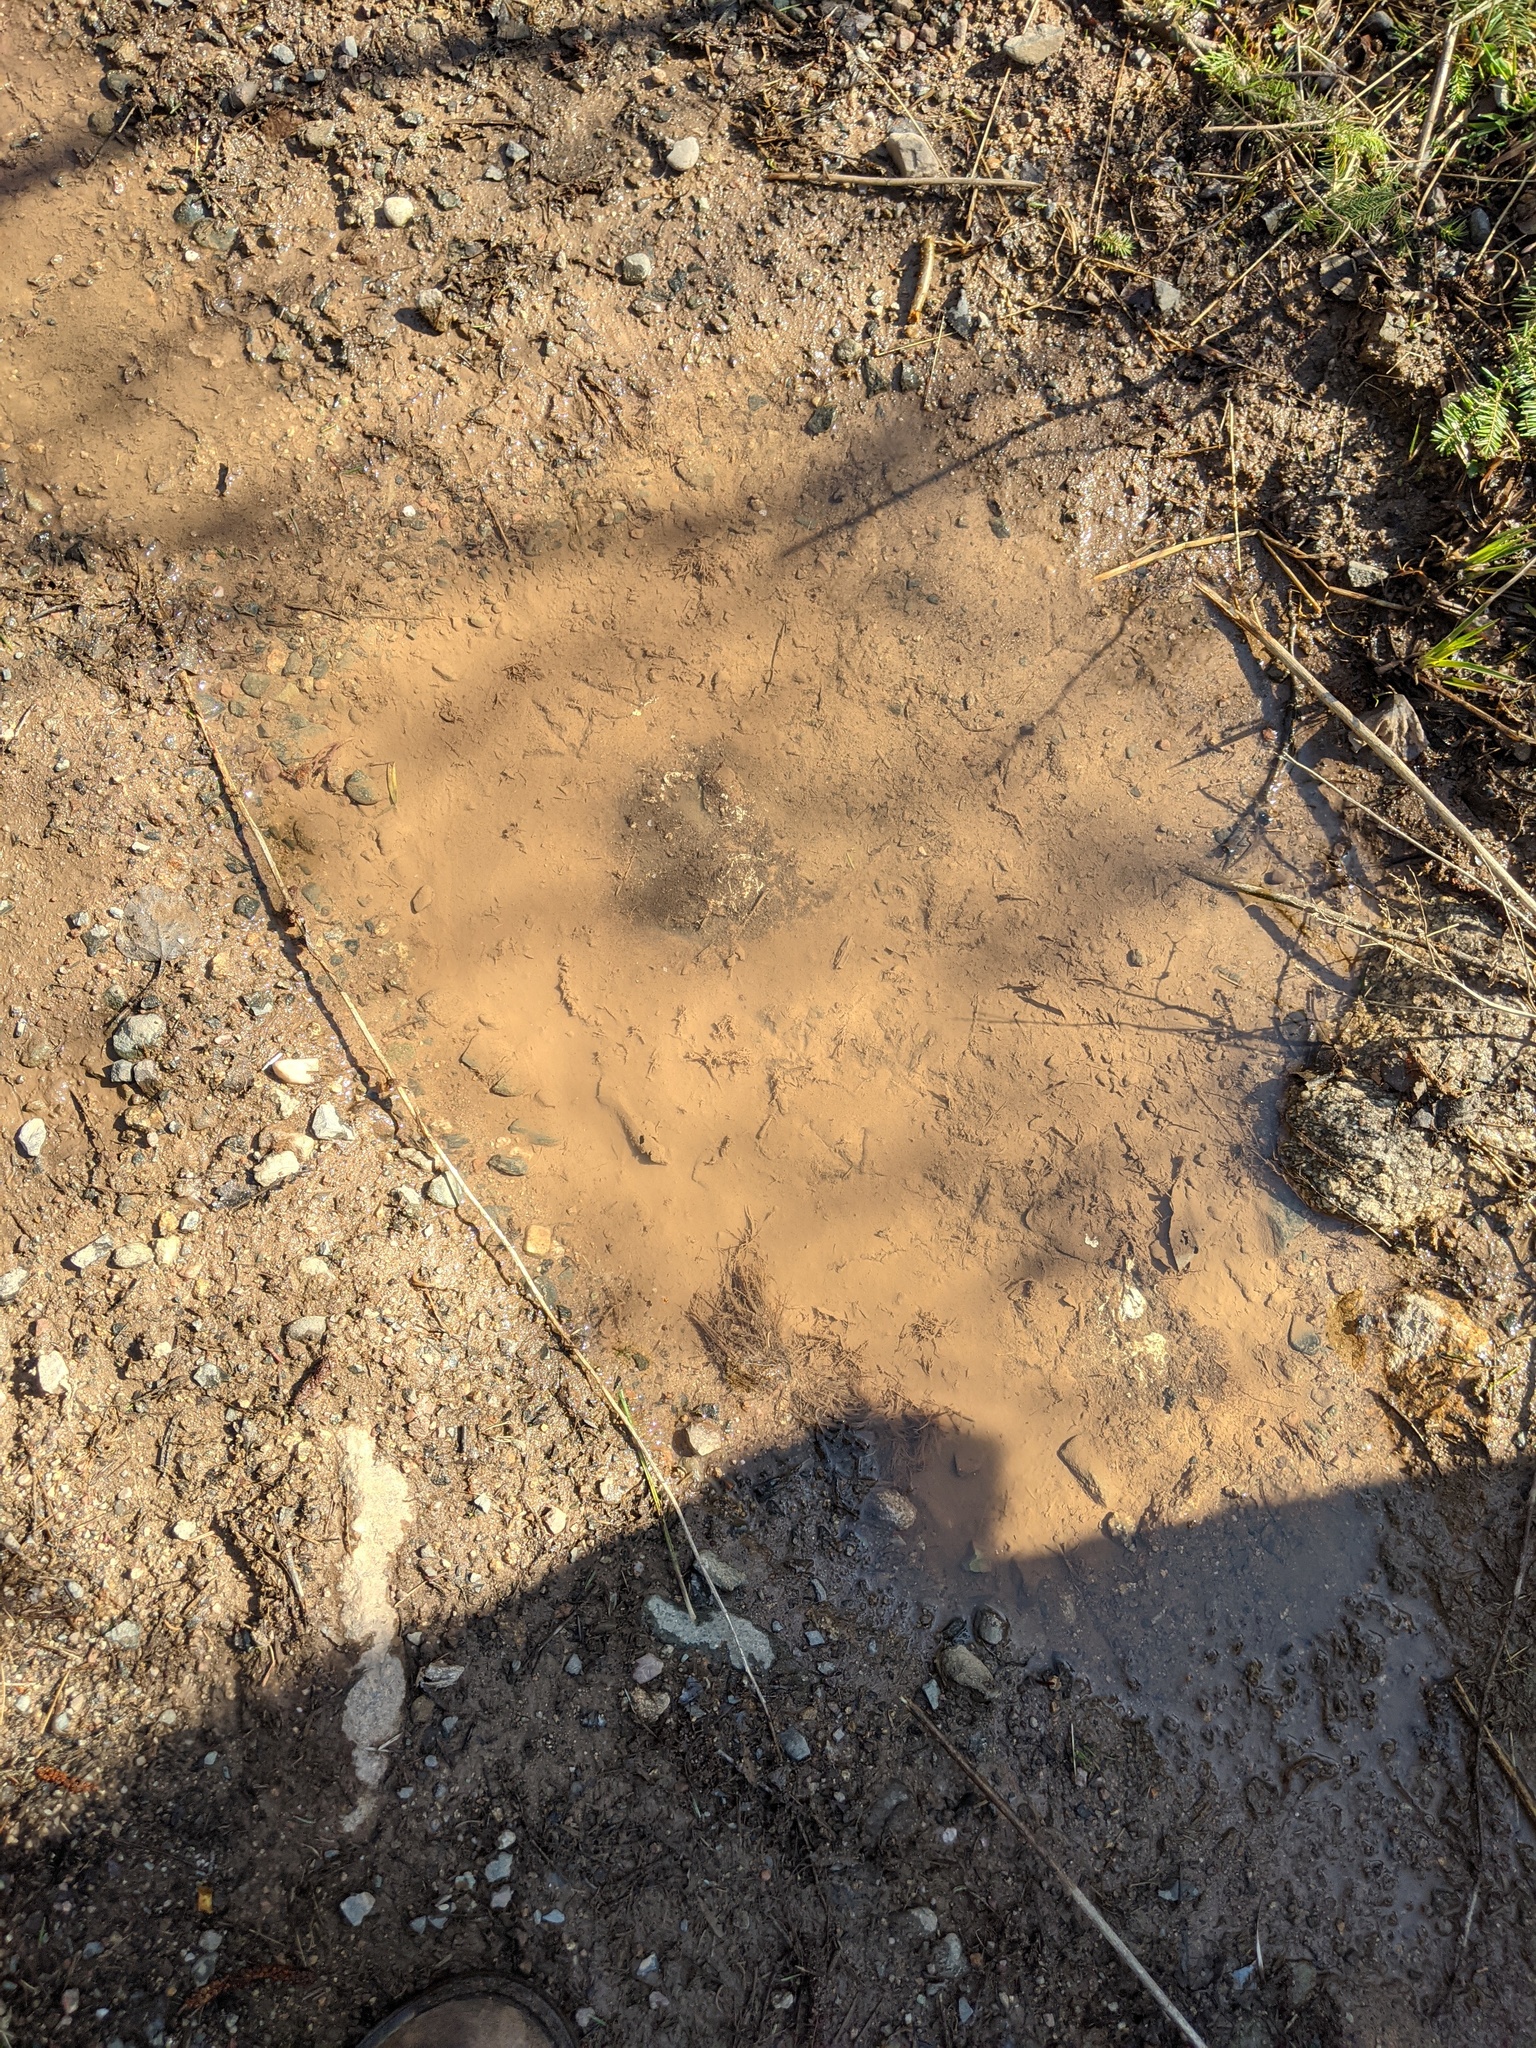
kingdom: Animalia
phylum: Chordata
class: Aves
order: Galliformes
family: Phasianidae
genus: Bonasa
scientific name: Bonasa umbellus
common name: Ruffed grouse
